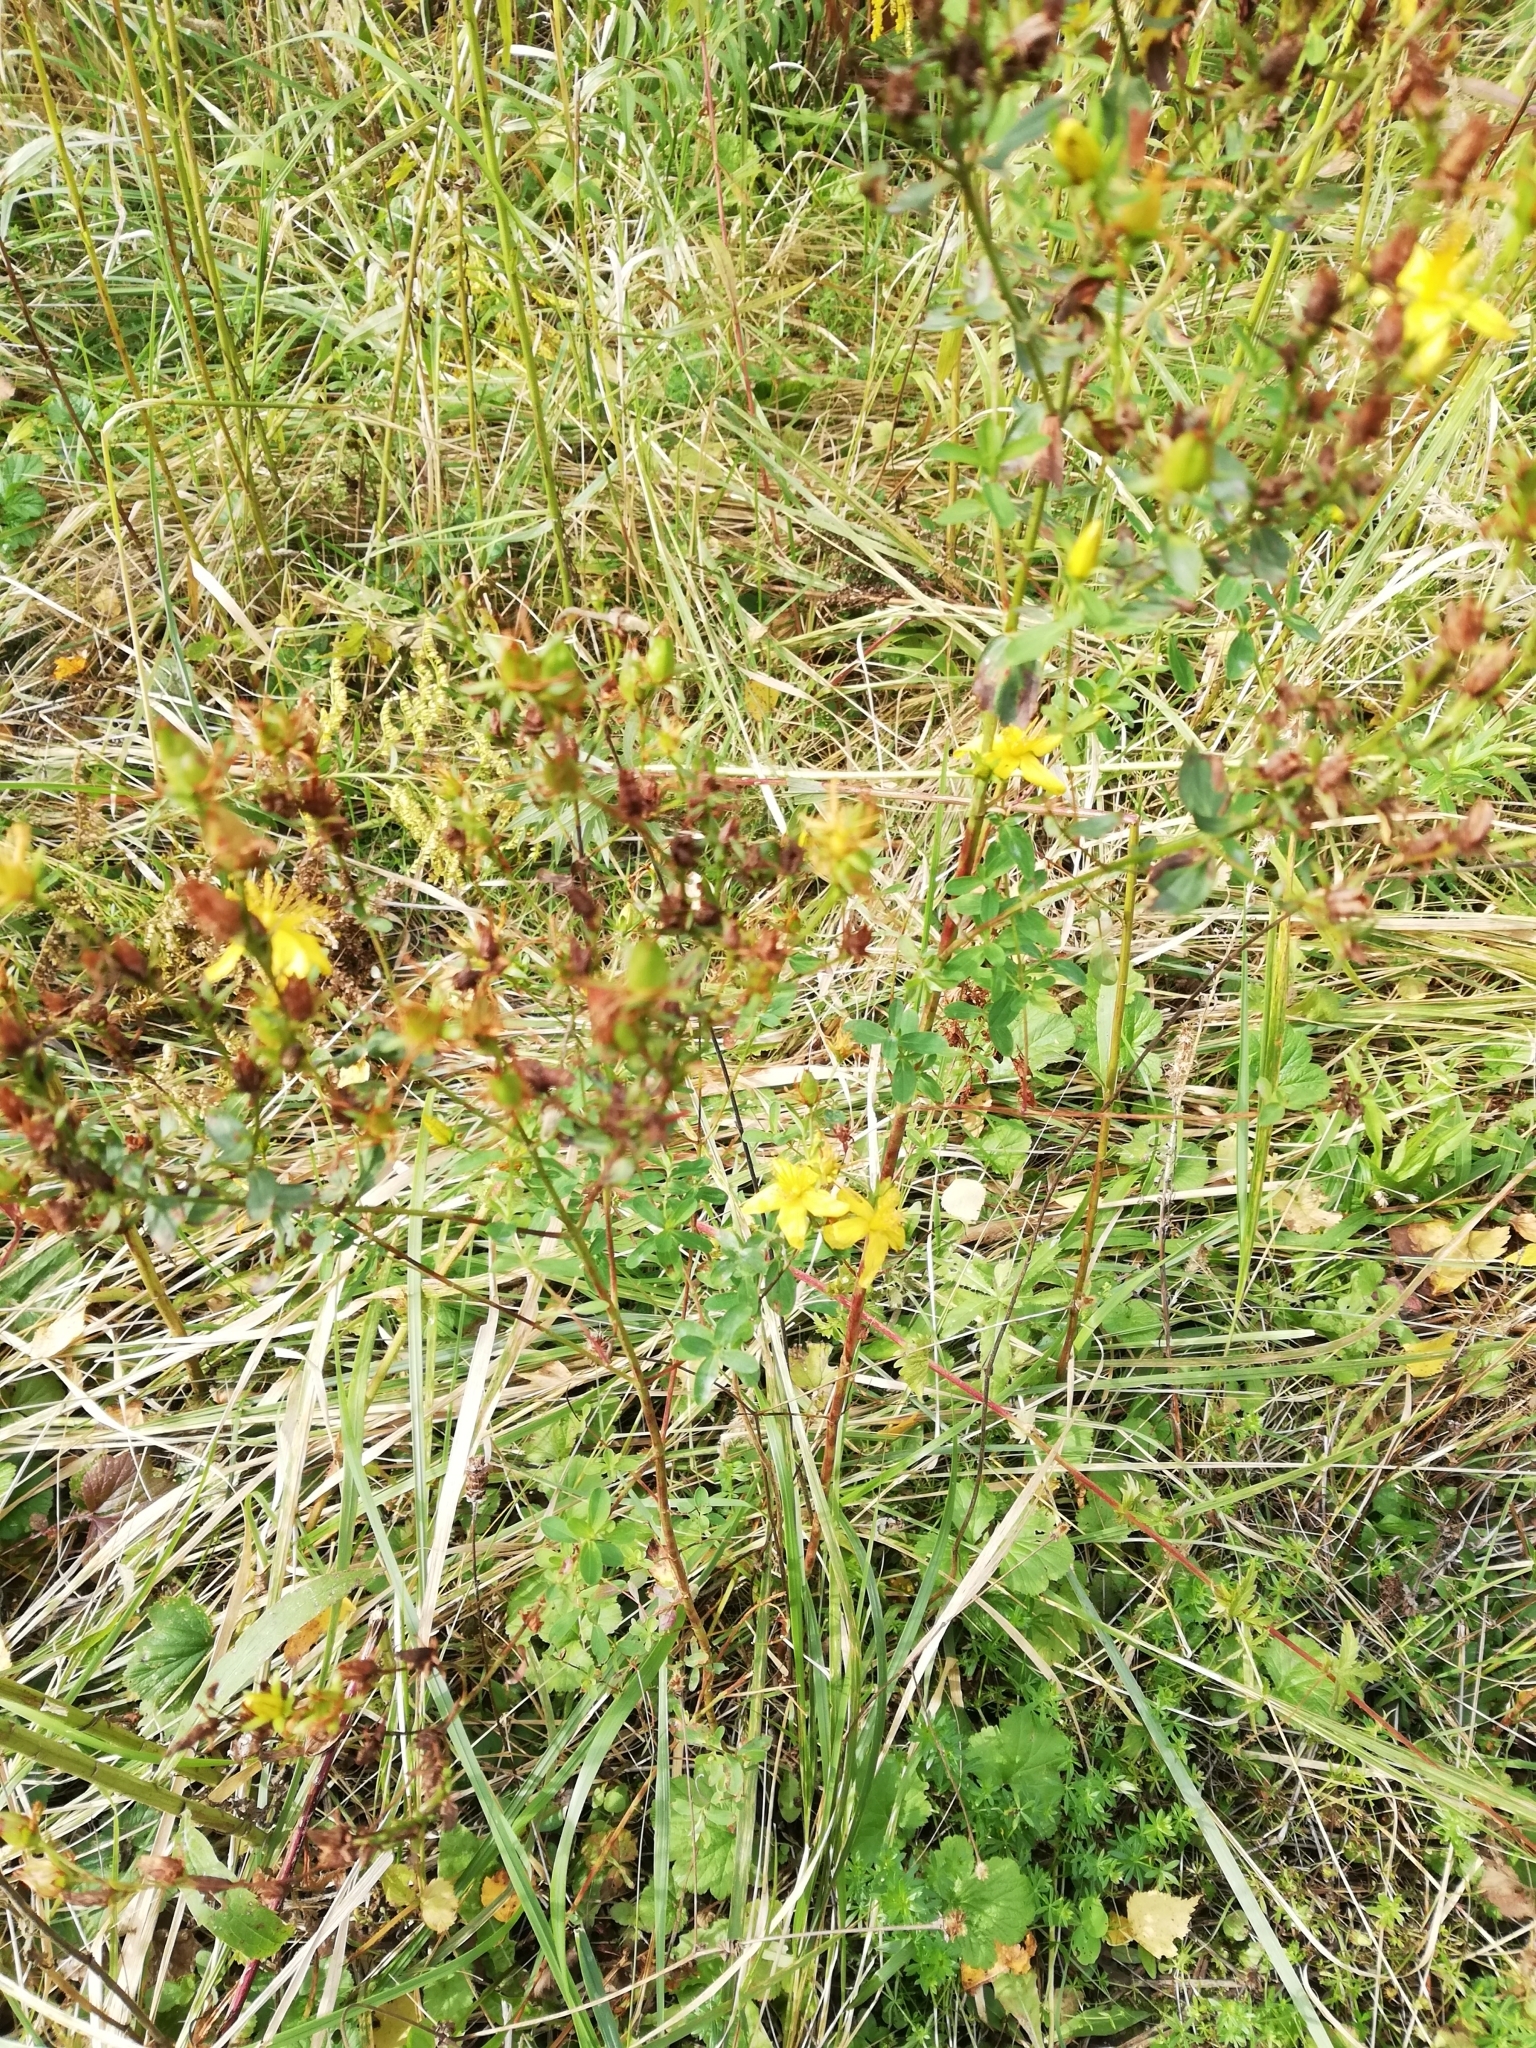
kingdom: Plantae
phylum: Tracheophyta
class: Magnoliopsida
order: Malpighiales
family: Hypericaceae
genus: Hypericum
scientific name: Hypericum perforatum
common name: Common st. johnswort
